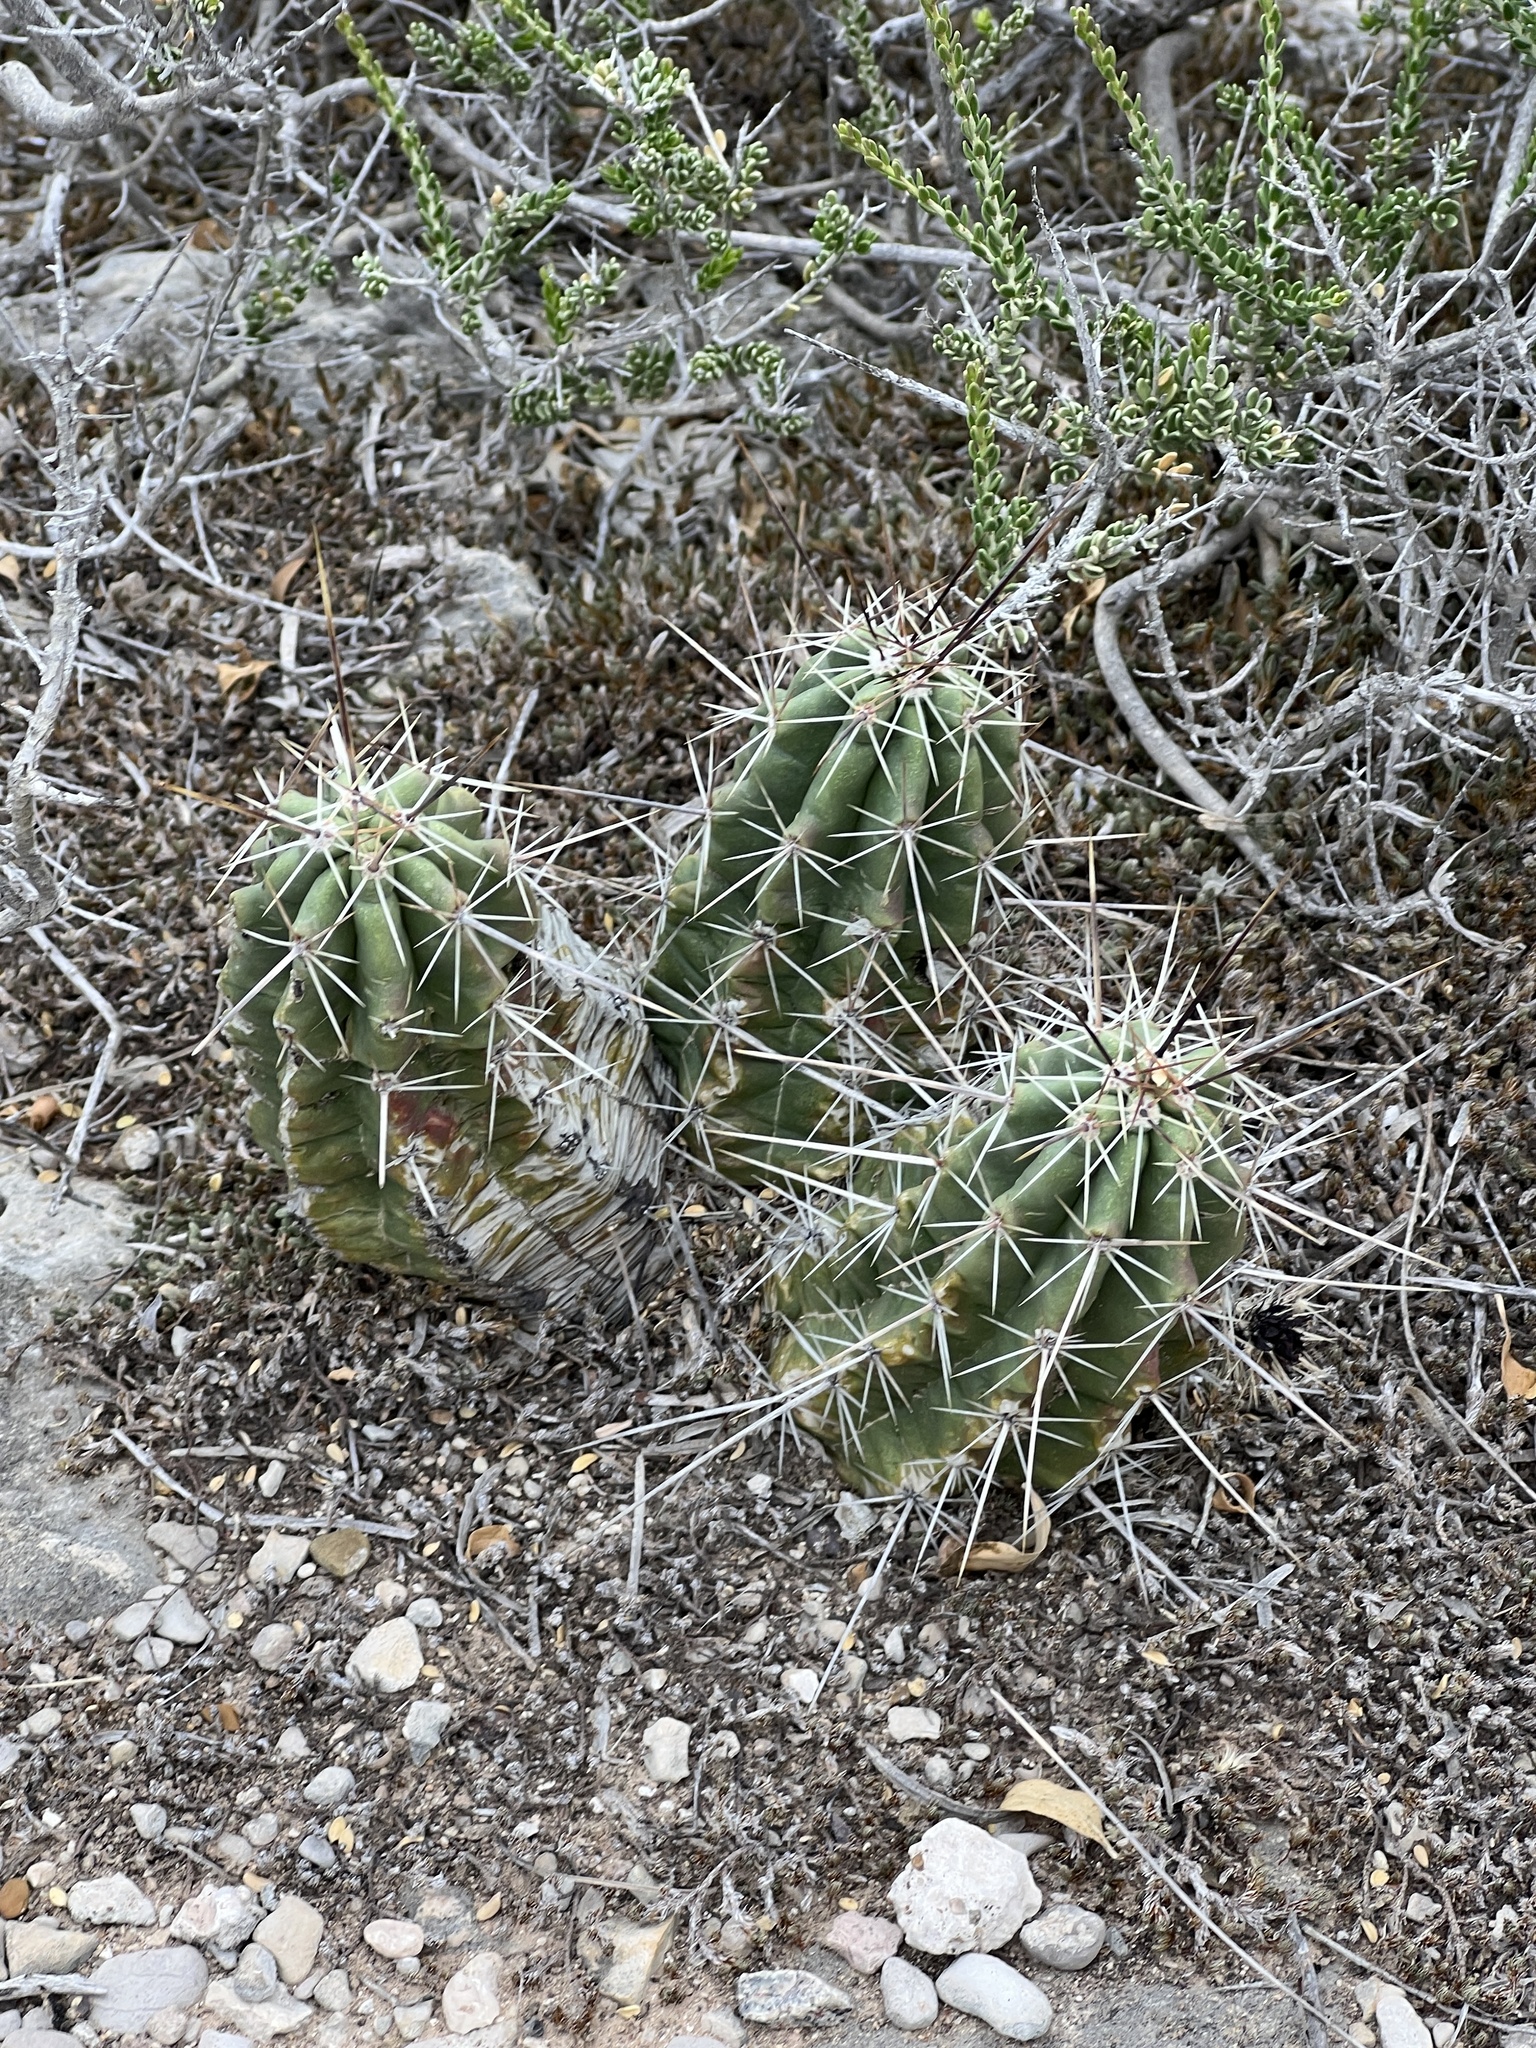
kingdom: Plantae
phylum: Tracheophyta
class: Magnoliopsida
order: Caryophyllales
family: Cactaceae
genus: Echinocereus
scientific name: Echinocereus enneacanthus
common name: Pitaya
